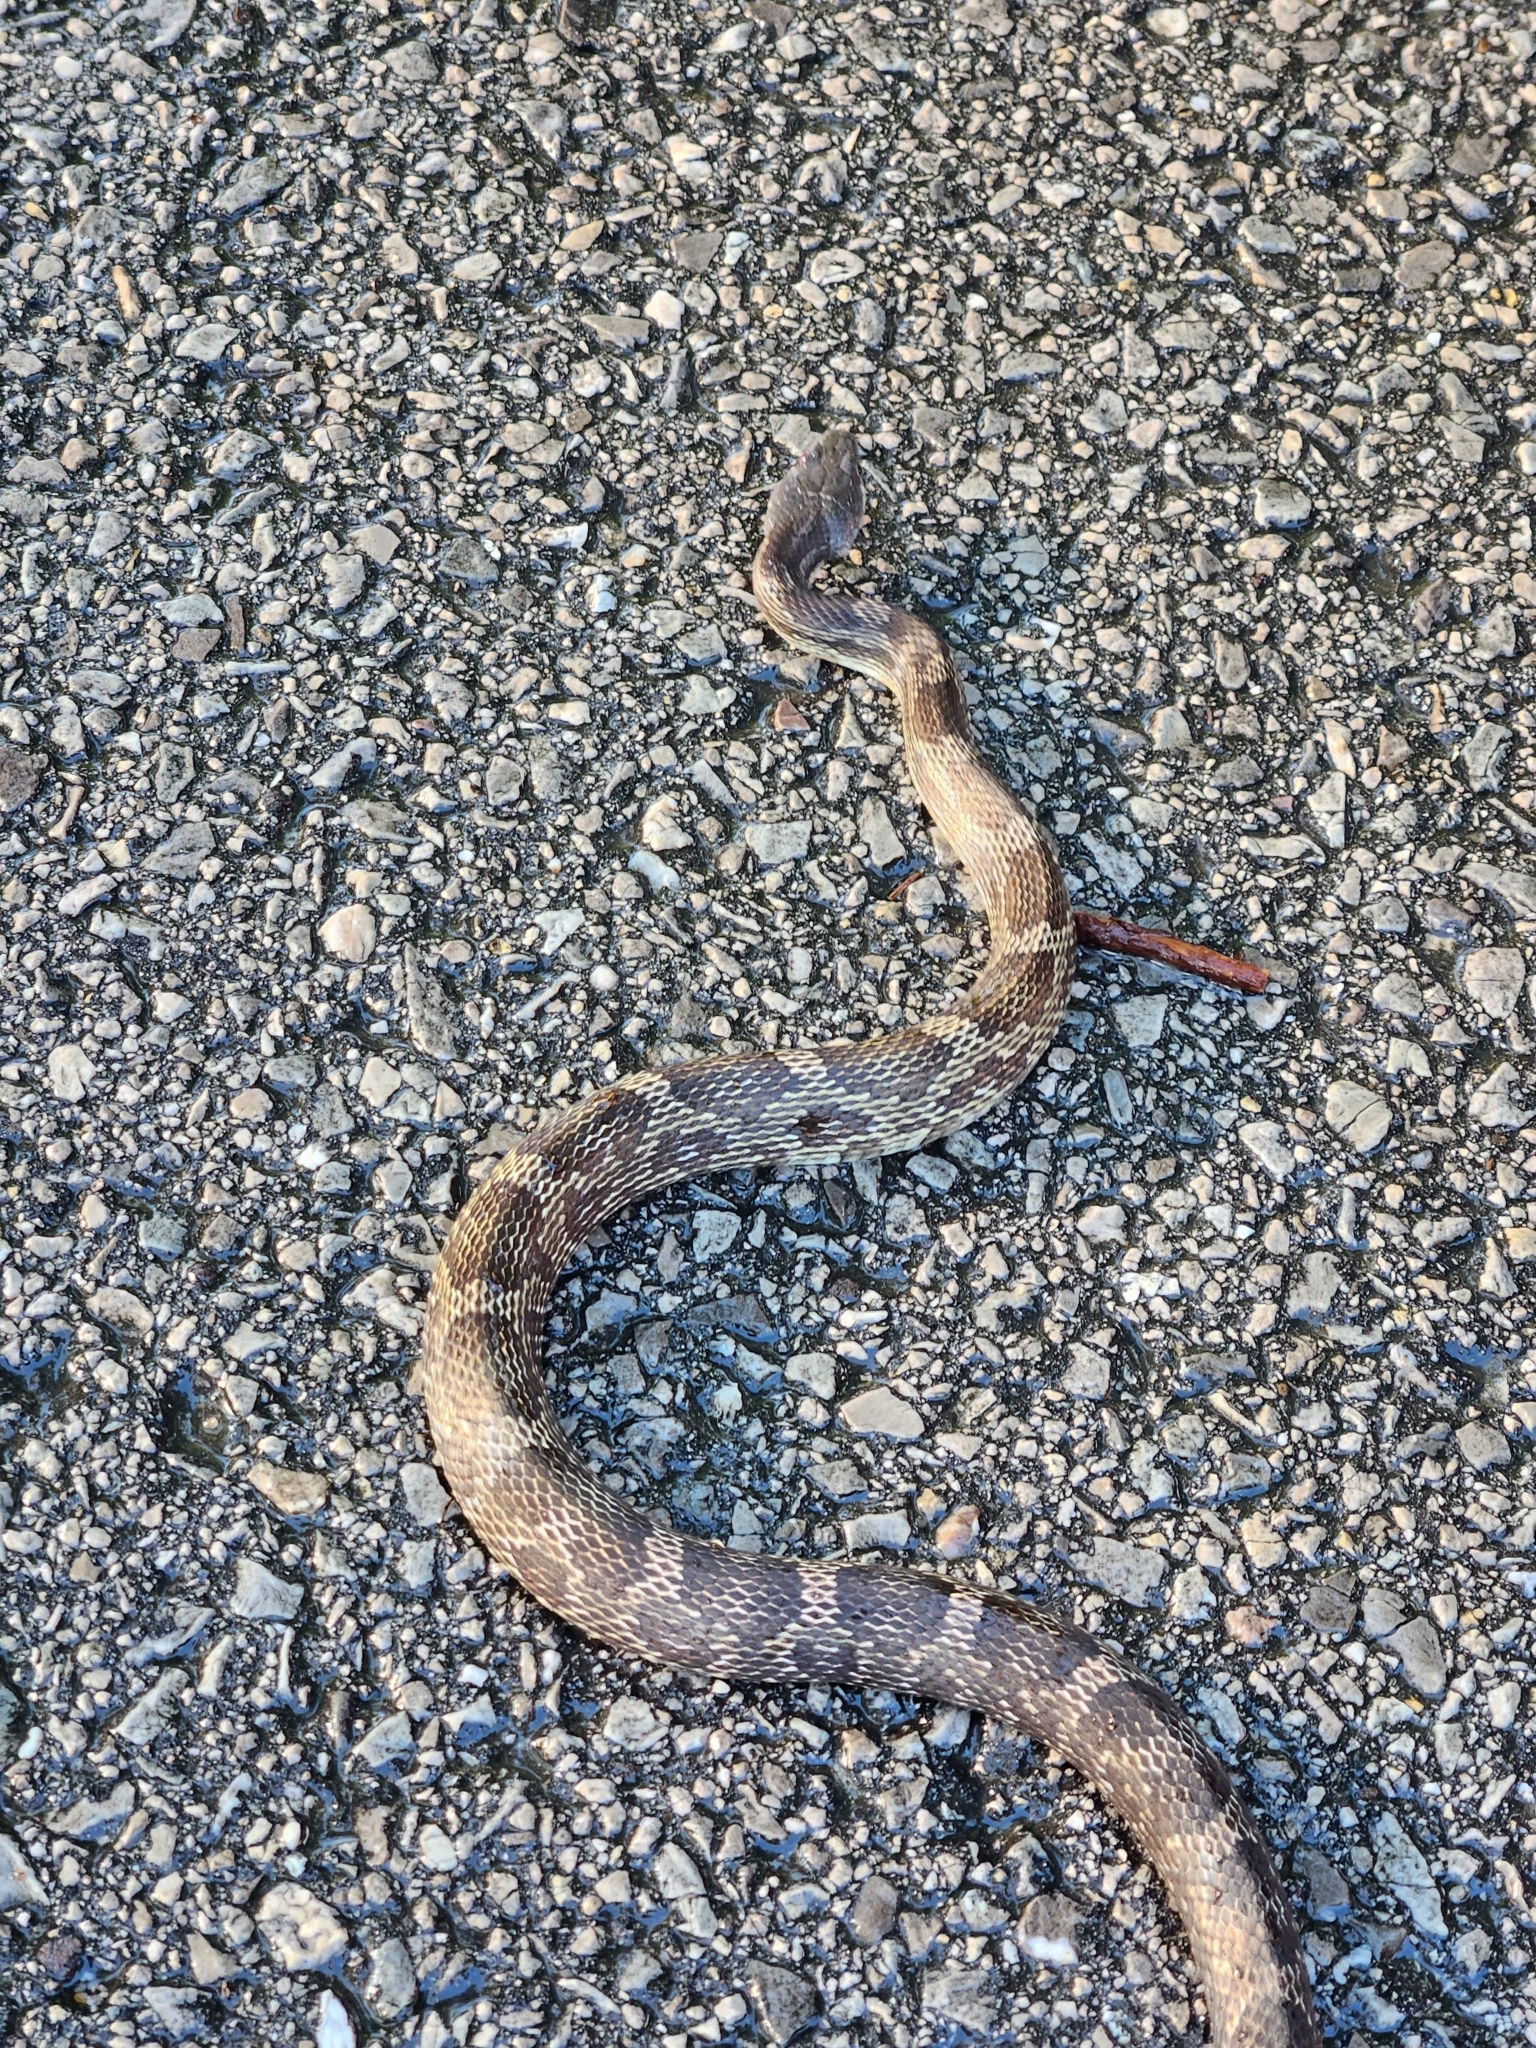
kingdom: Animalia
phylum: Chordata
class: Squamata
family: Colubridae
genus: Pantherophis
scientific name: Pantherophis spiloides
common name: Gray rat snake
